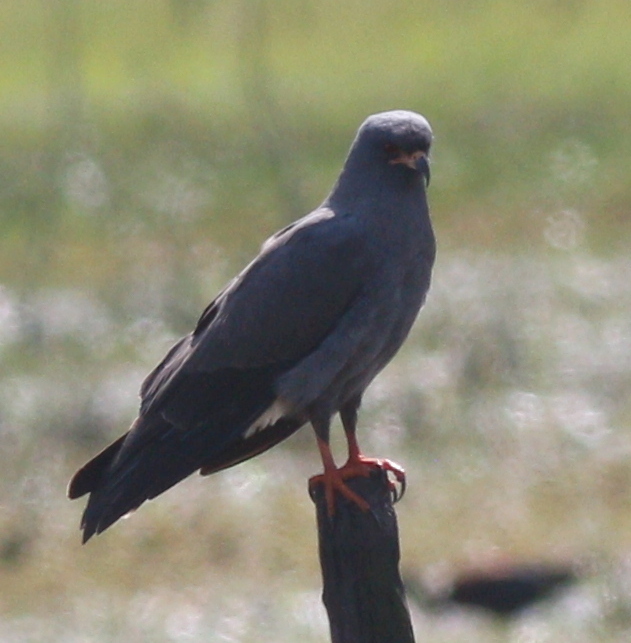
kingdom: Animalia
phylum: Chordata
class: Aves
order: Accipitriformes
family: Accipitridae
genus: Rostrhamus
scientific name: Rostrhamus sociabilis
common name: Snail kite
